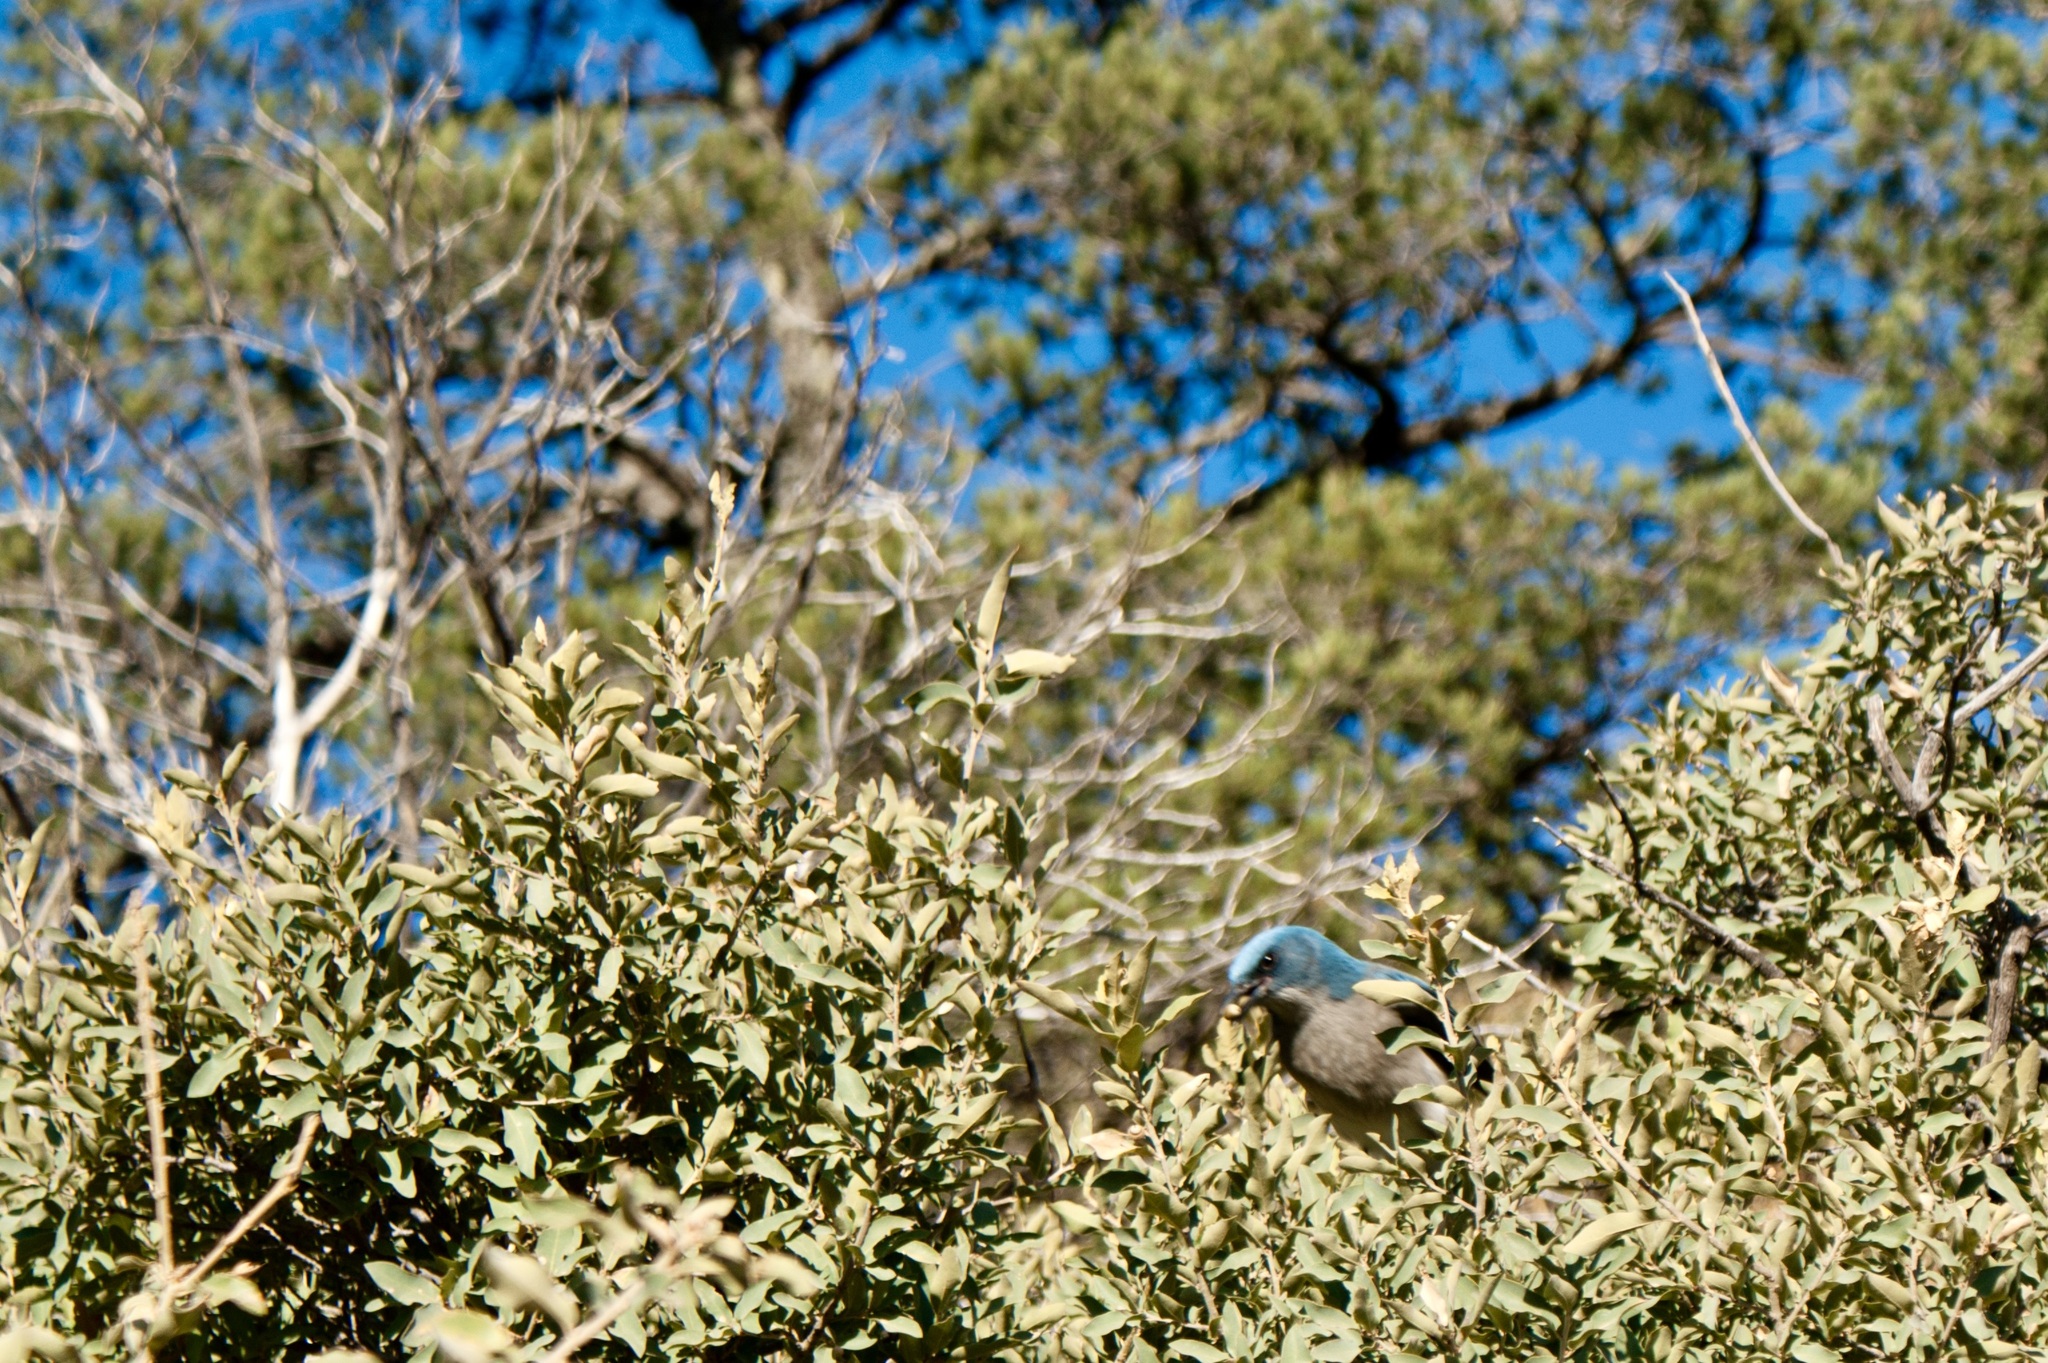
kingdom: Animalia
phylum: Chordata
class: Aves
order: Passeriformes
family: Corvidae
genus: Aphelocoma
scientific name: Aphelocoma wollweberi
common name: Mexican jay
